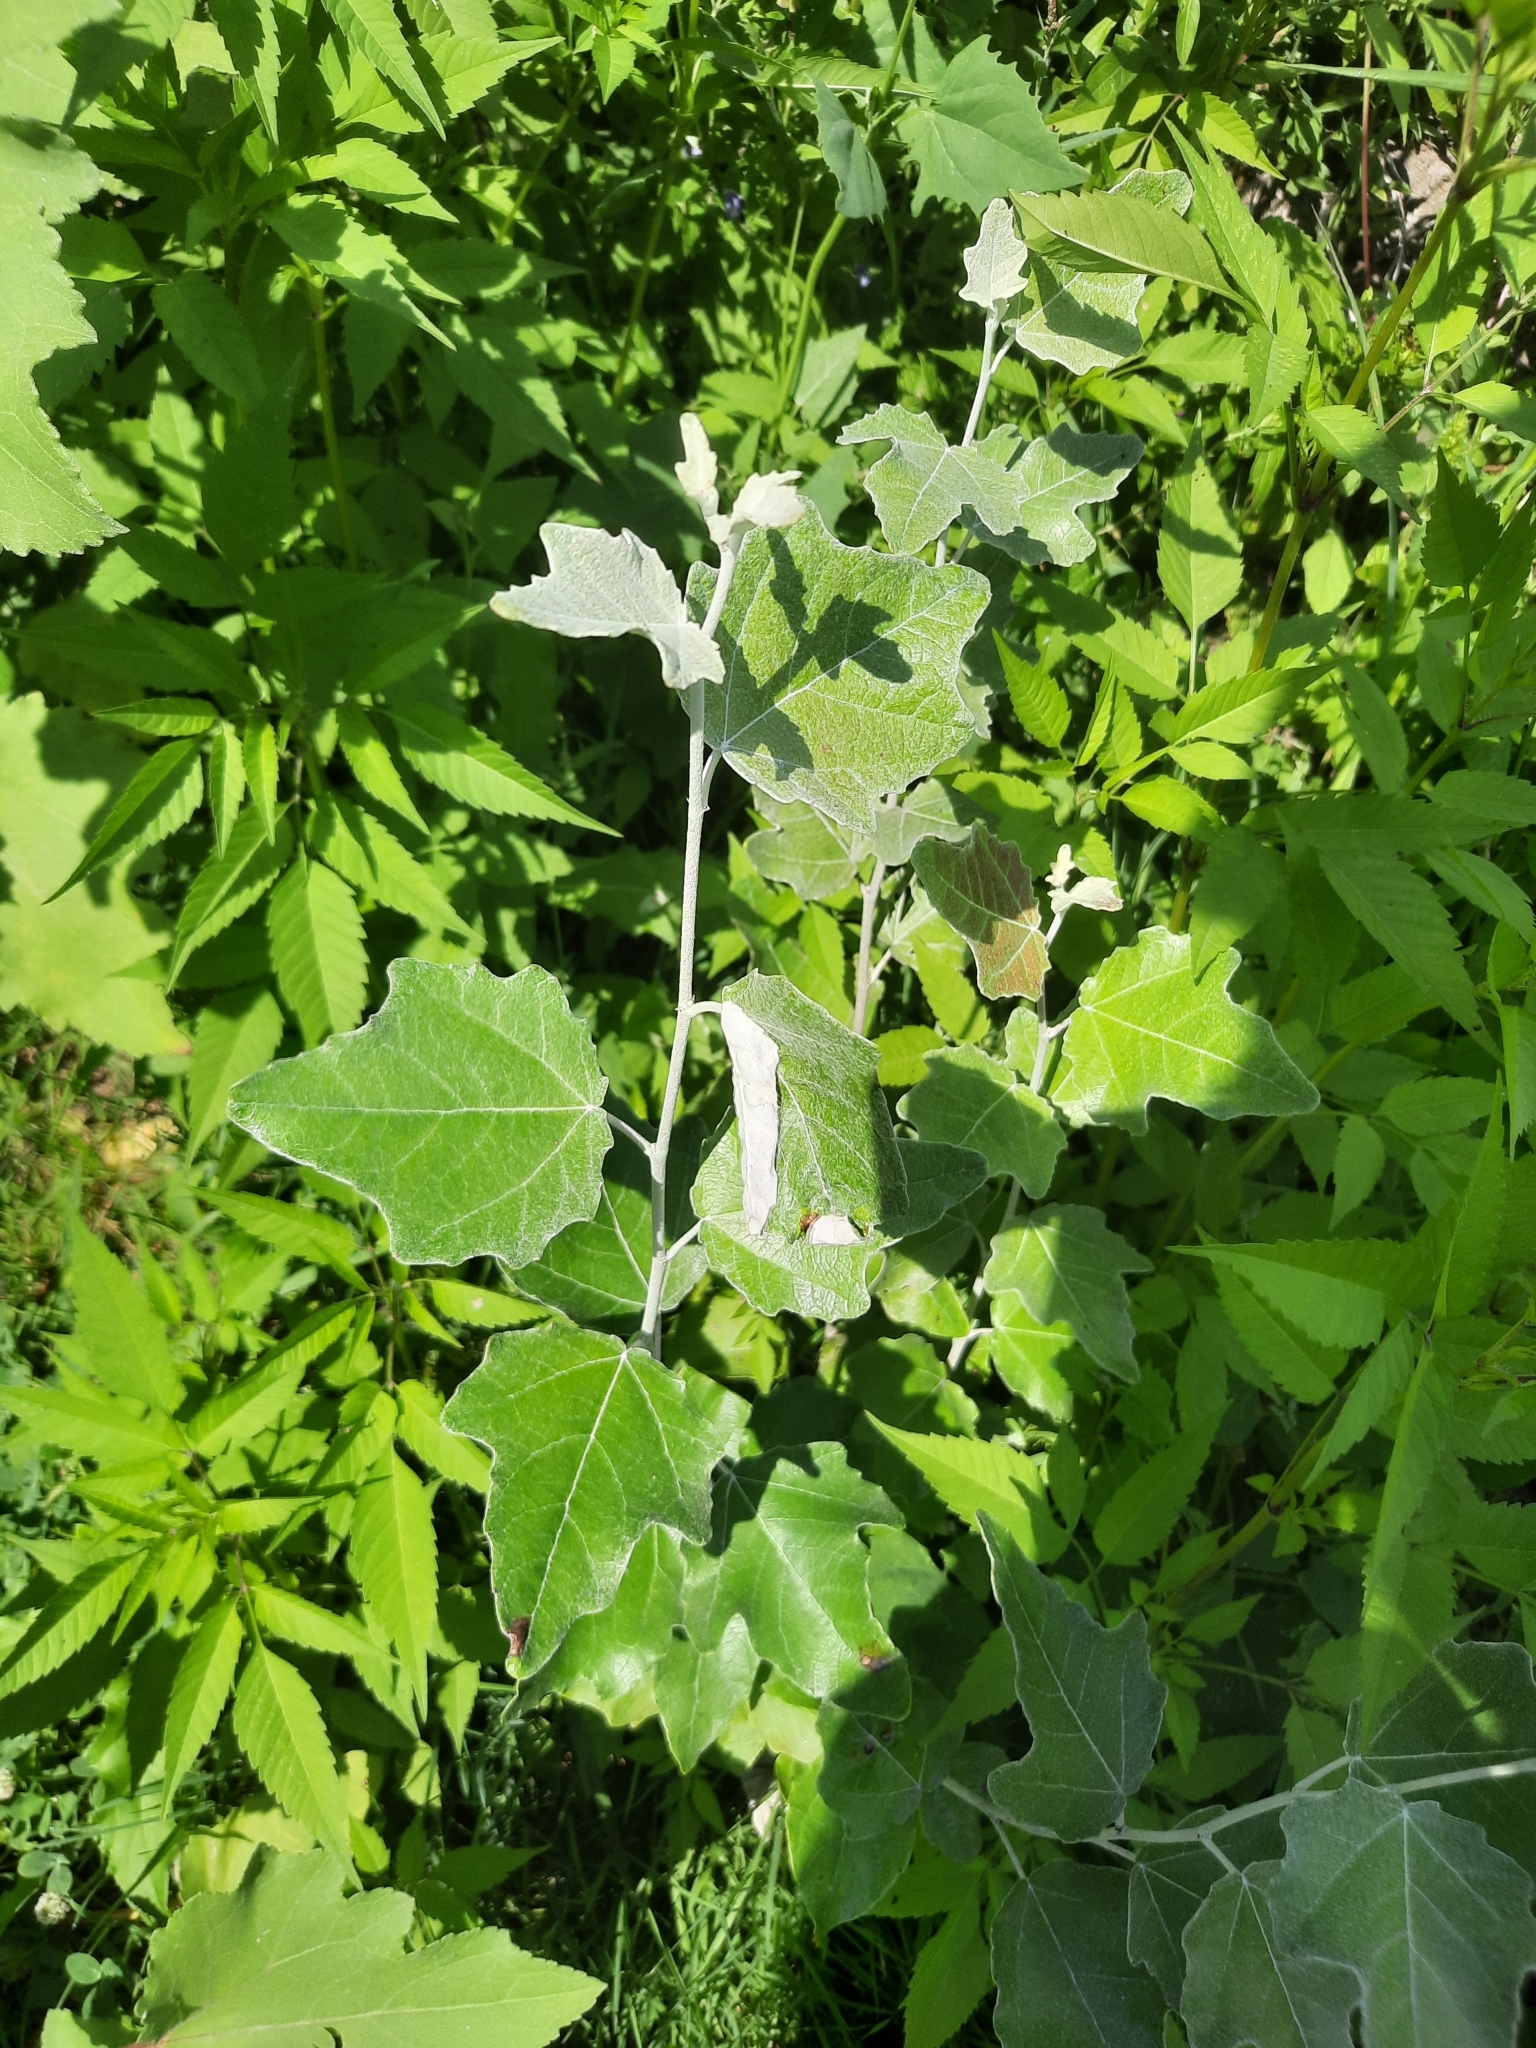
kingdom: Plantae
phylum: Tracheophyta
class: Magnoliopsida
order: Malpighiales
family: Salicaceae
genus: Populus
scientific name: Populus alba
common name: White poplar
